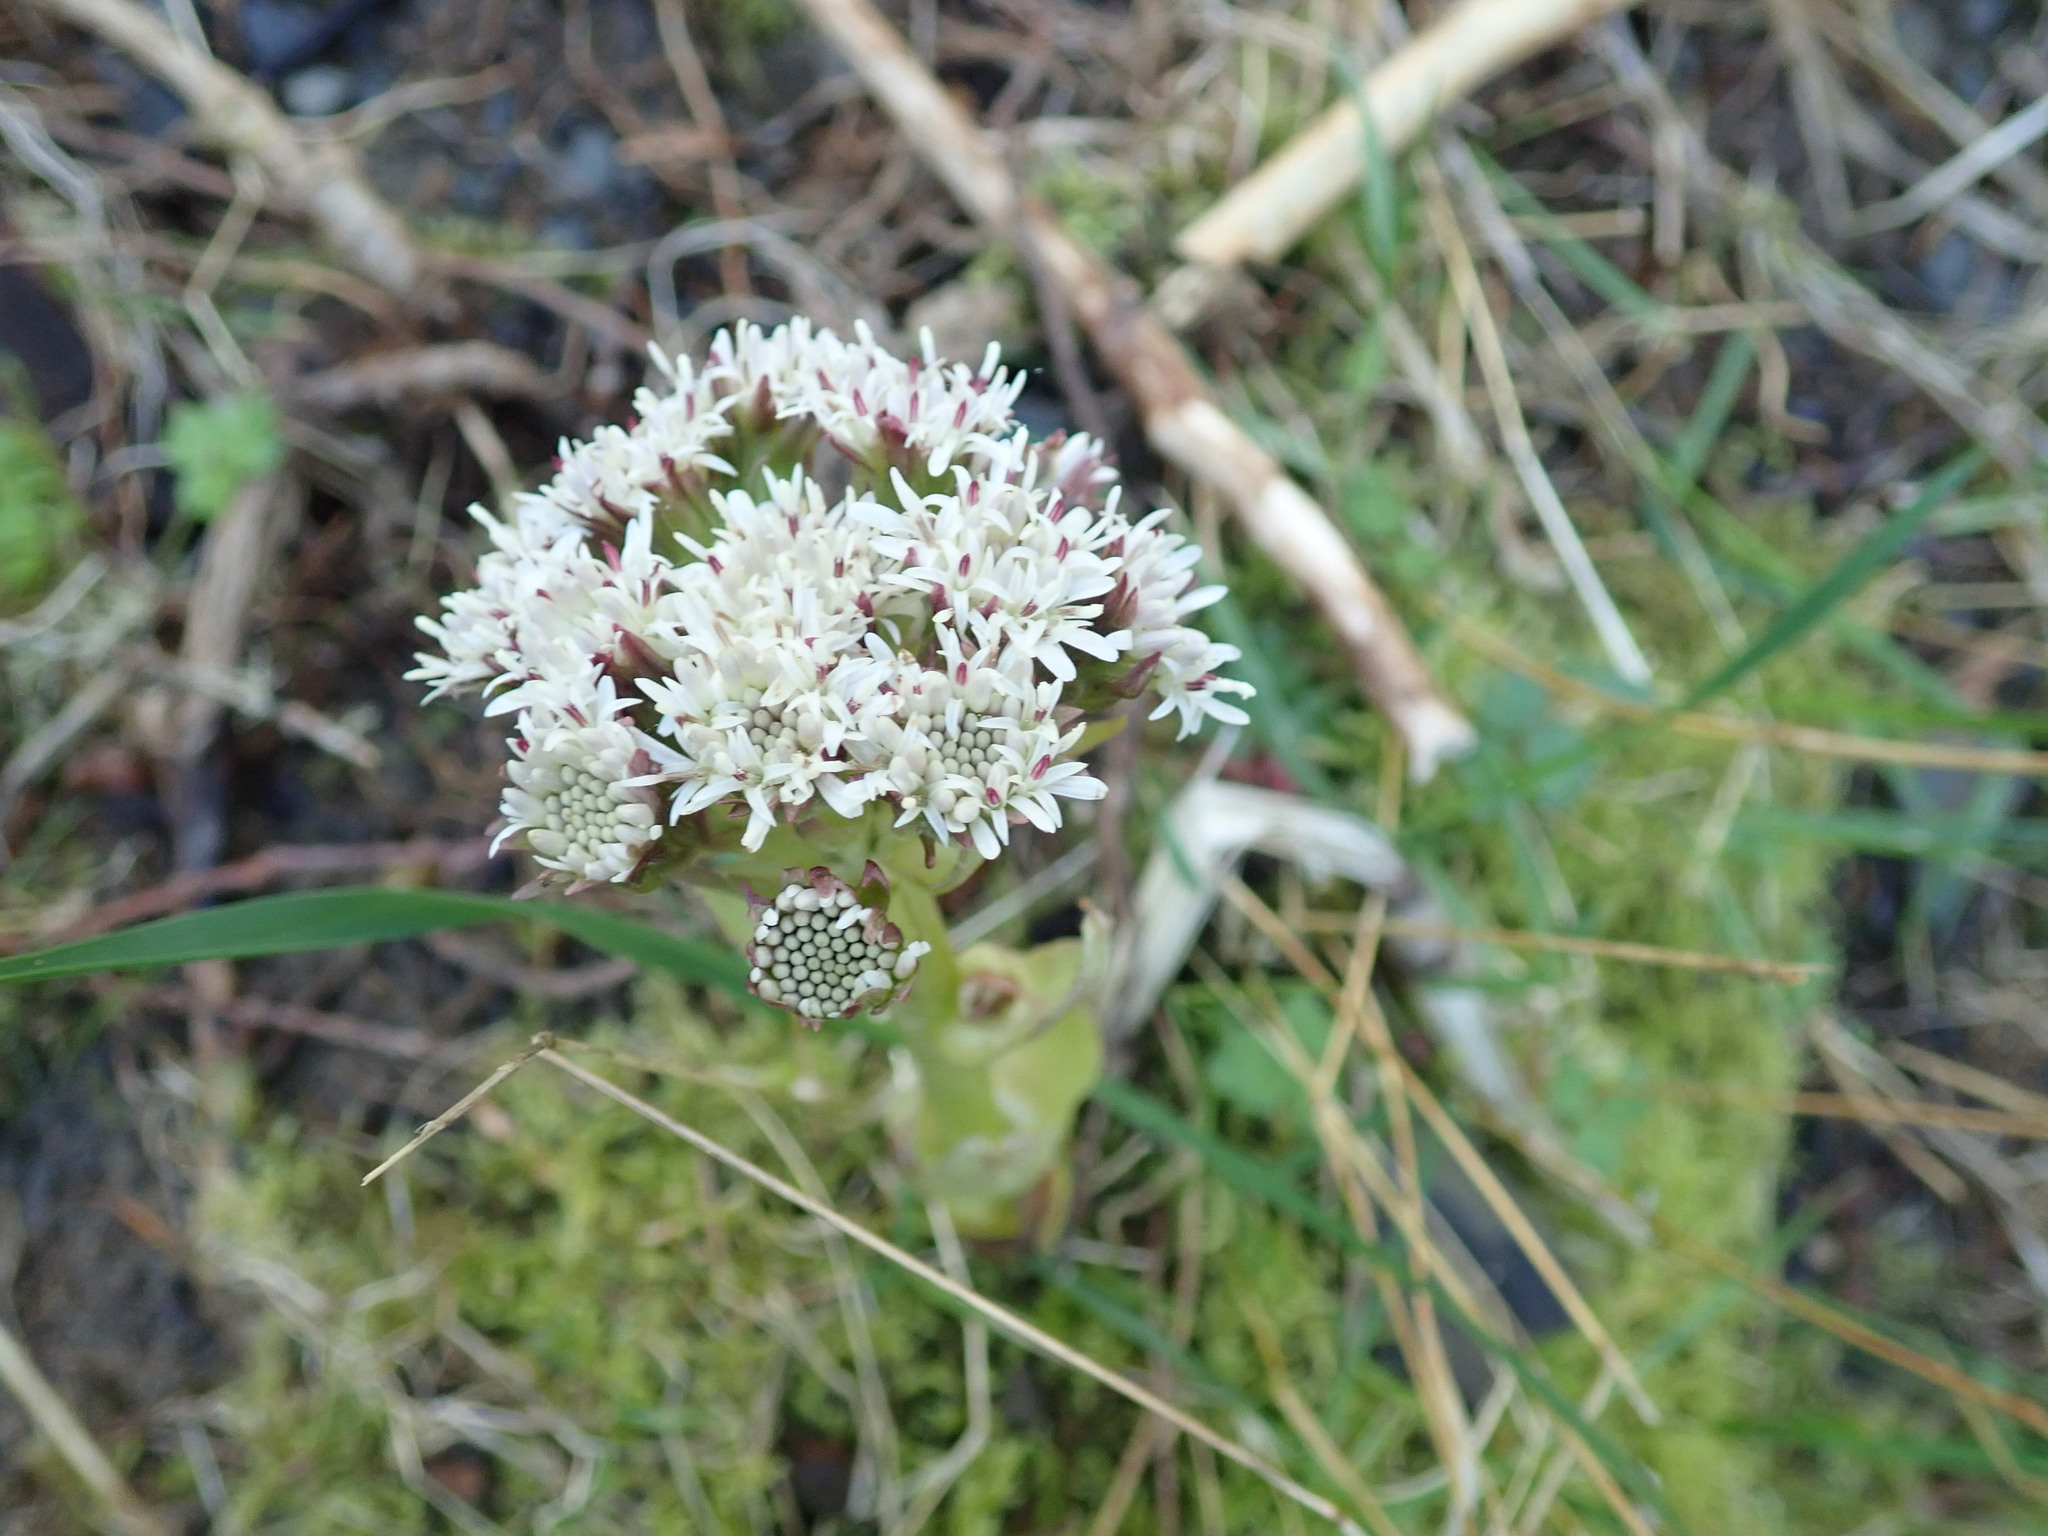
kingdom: Plantae
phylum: Tracheophyta
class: Magnoliopsida
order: Asterales
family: Asteraceae
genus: Petasites
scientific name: Petasites frigidus
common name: Arctic butterbur
